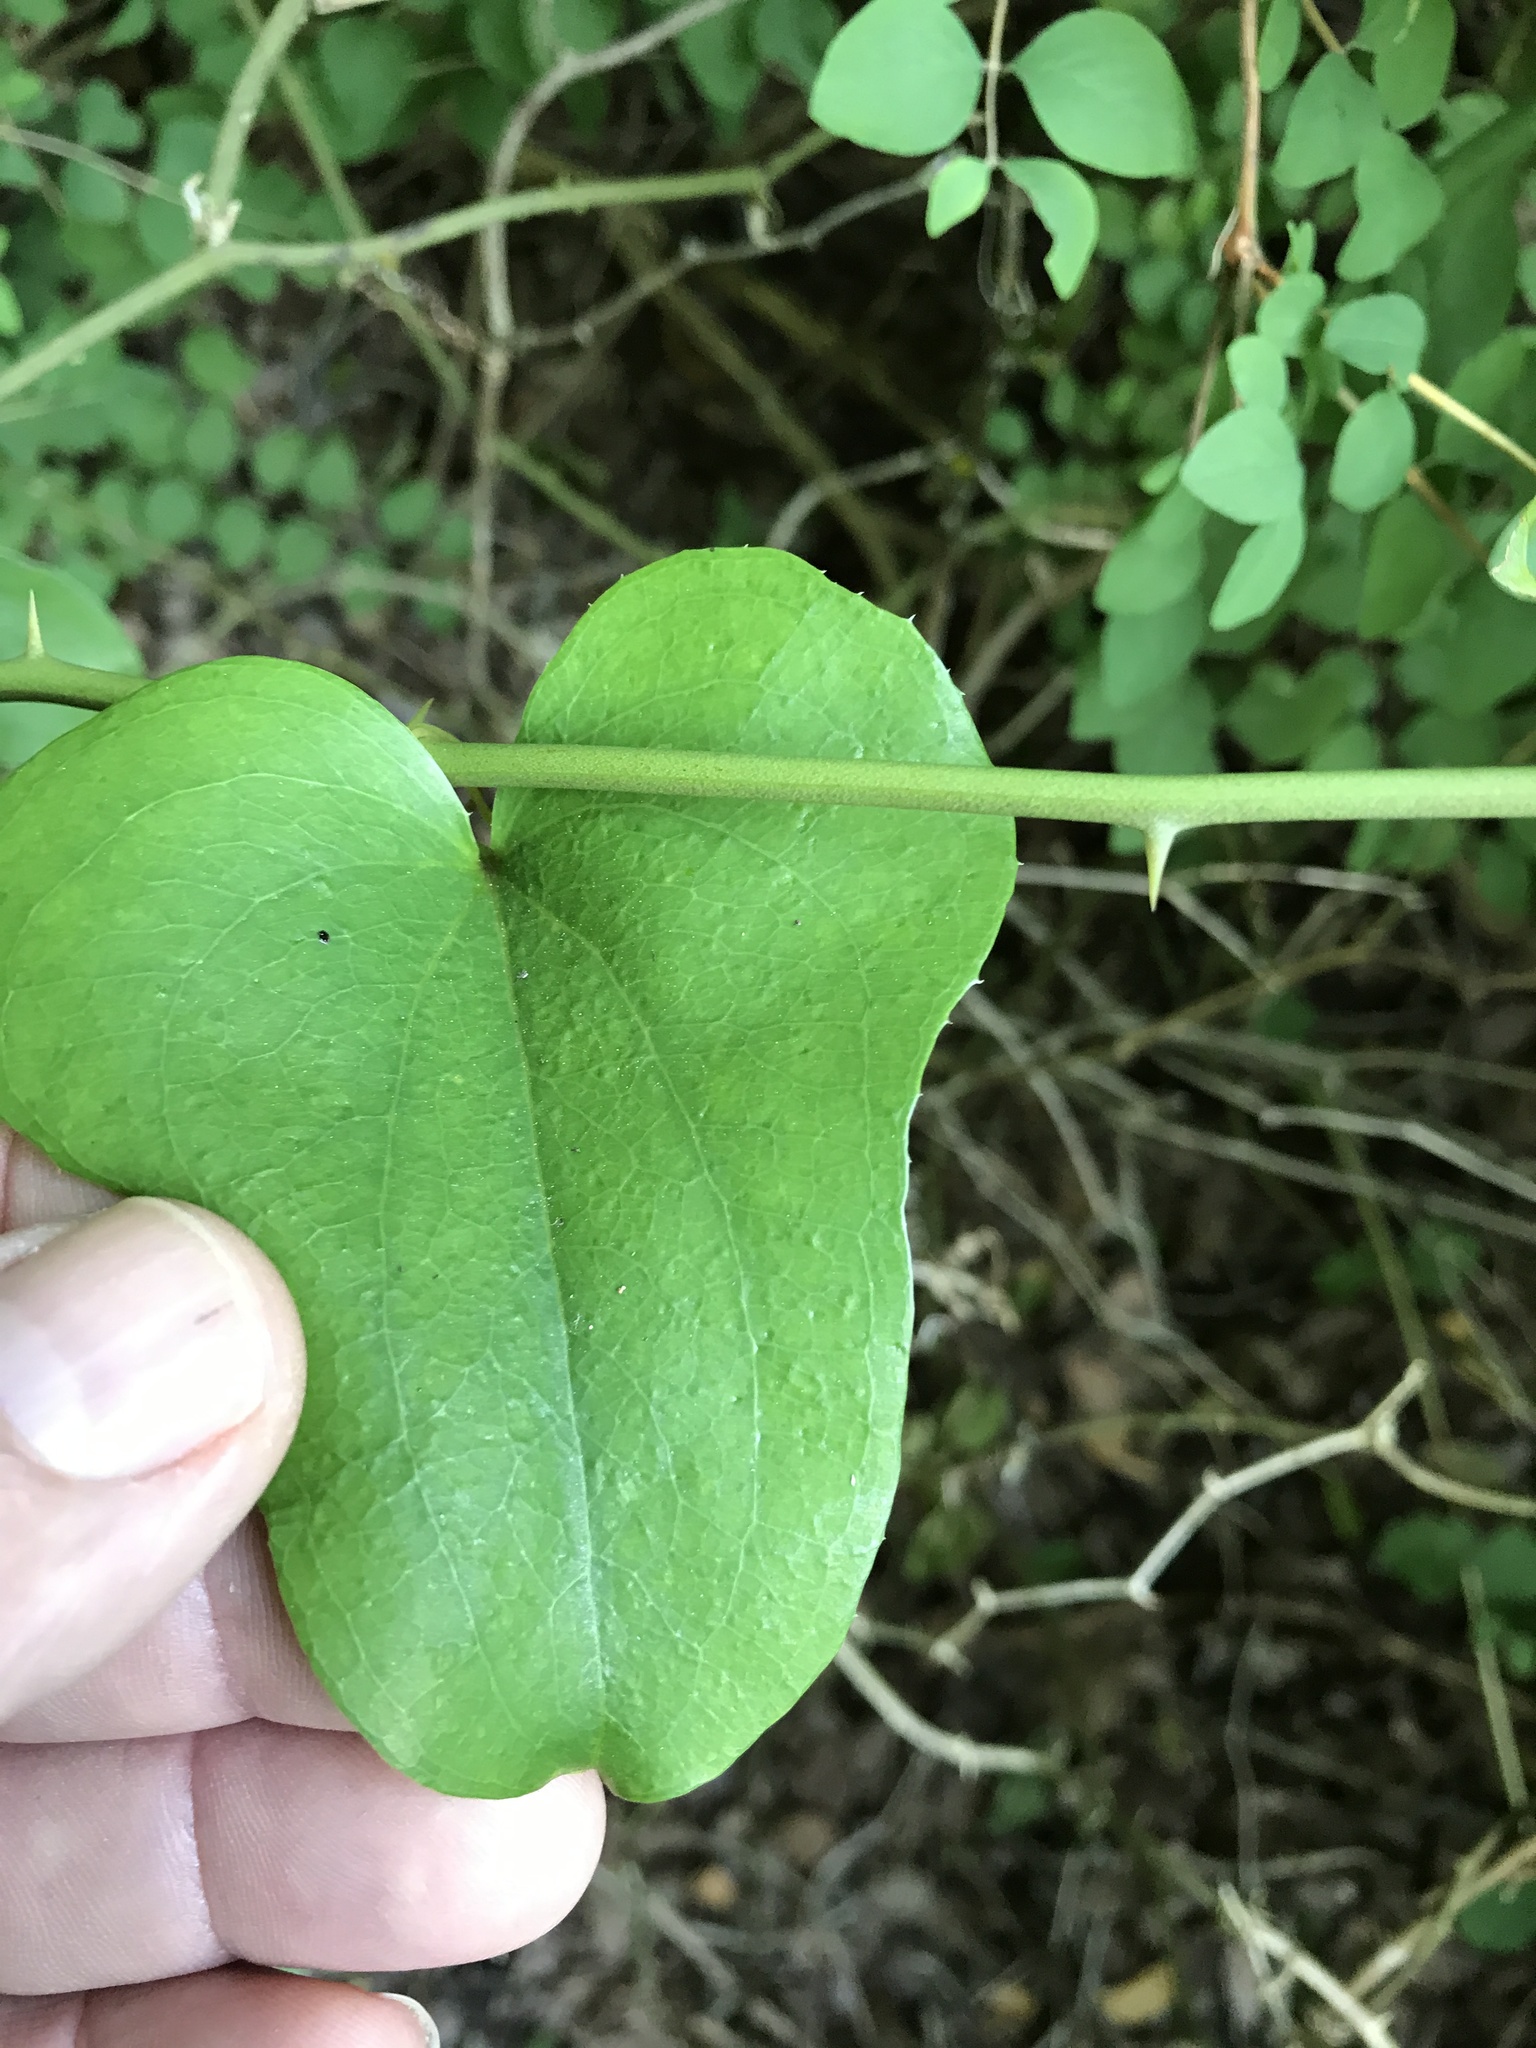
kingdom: Plantae
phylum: Tracheophyta
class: Liliopsida
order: Liliales
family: Smilacaceae
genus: Smilax
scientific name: Smilax bona-nox
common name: Catbrier
